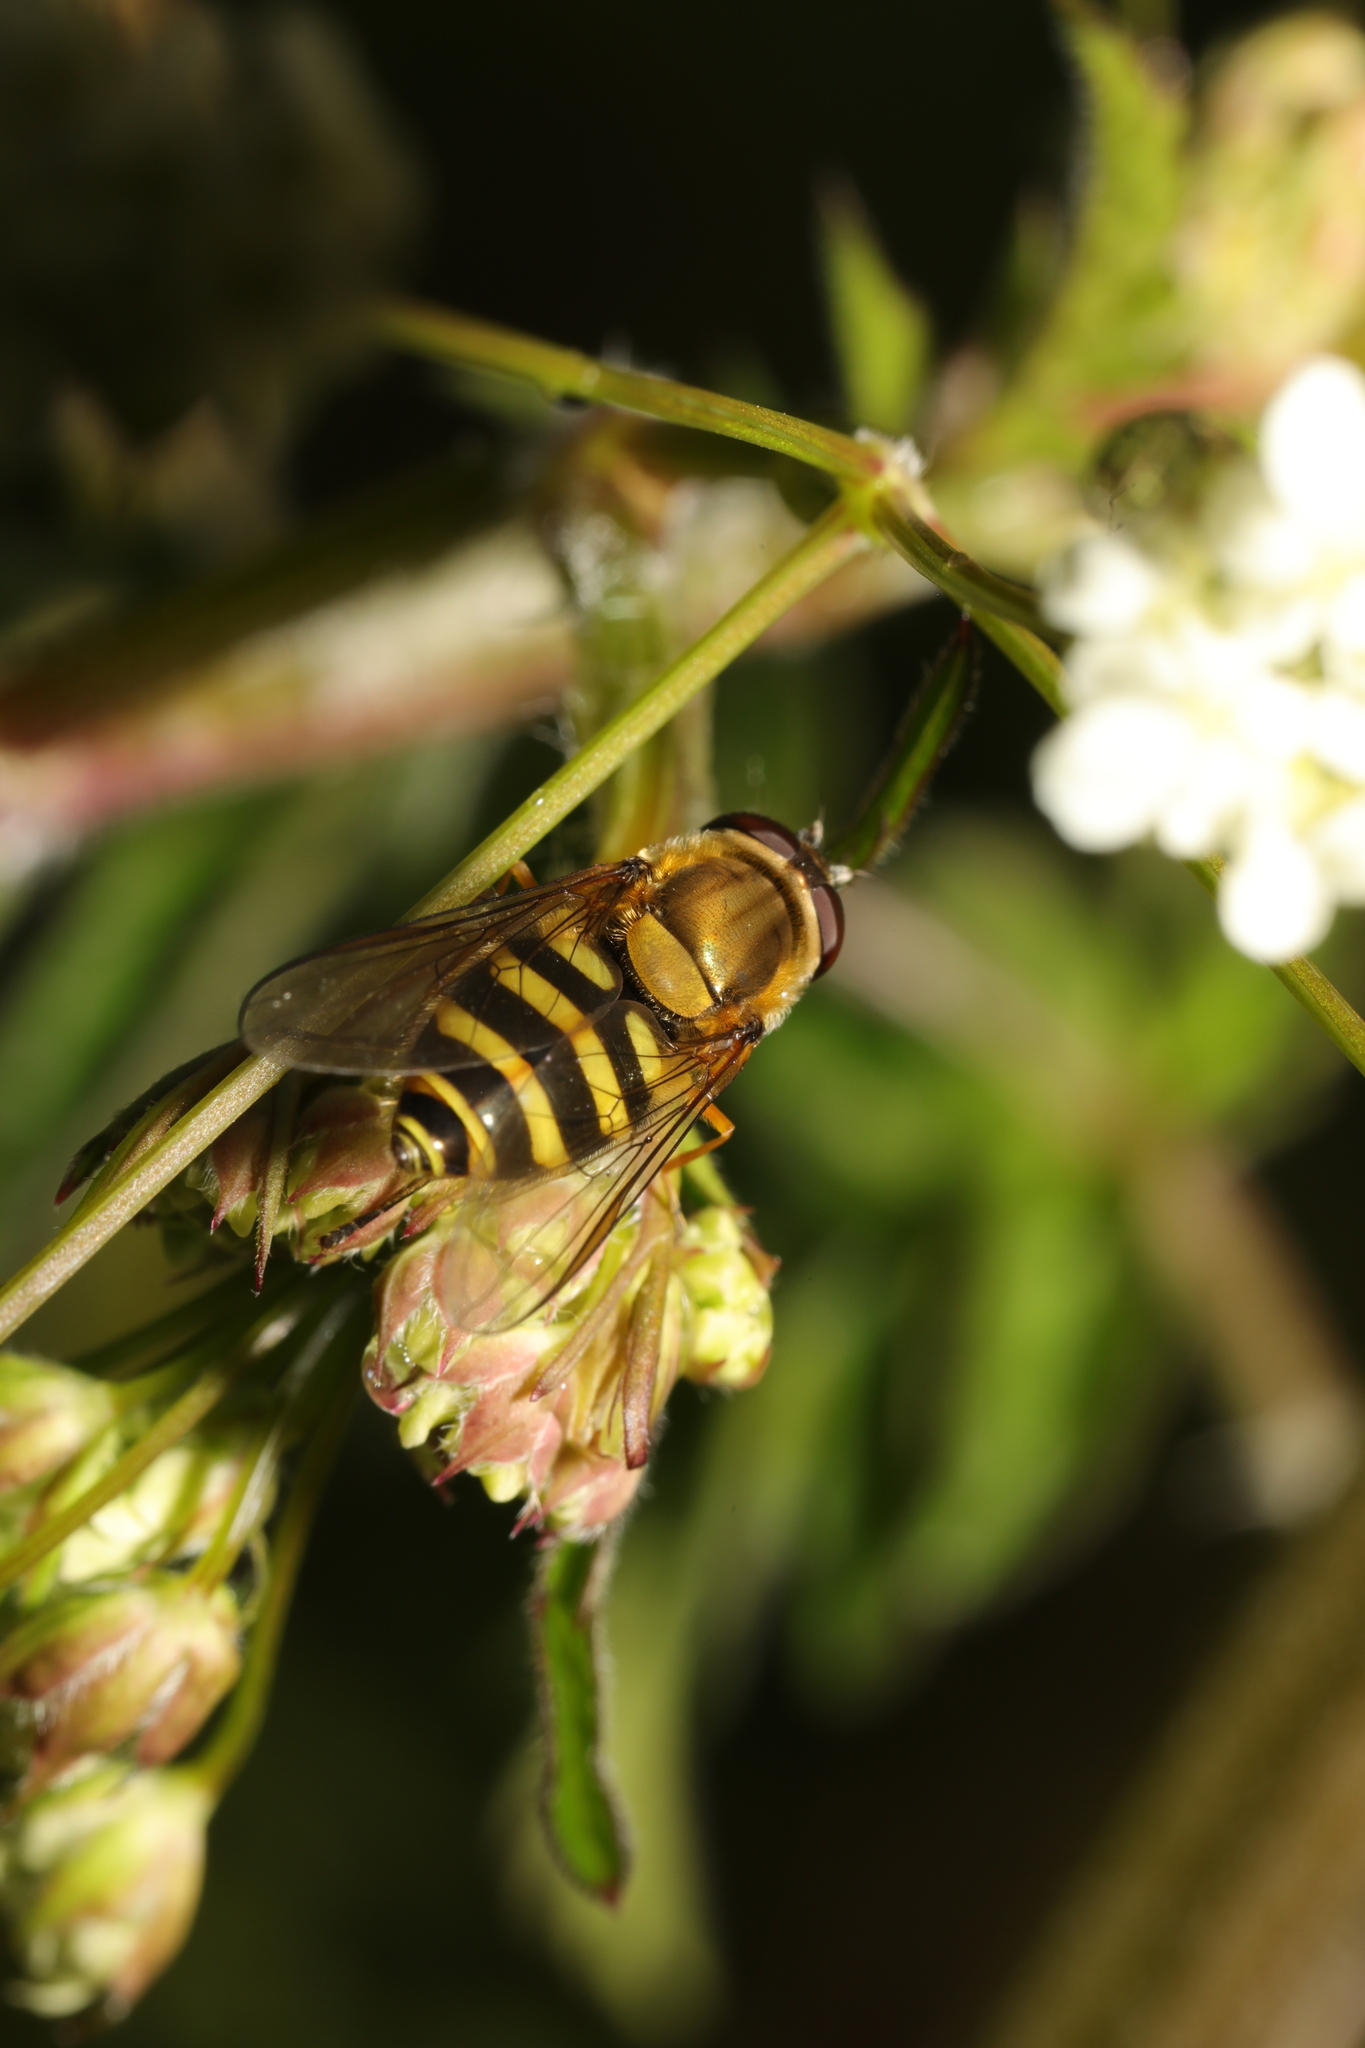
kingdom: Animalia
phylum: Arthropoda
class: Insecta
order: Diptera
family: Syrphidae
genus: Syrphus
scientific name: Syrphus
